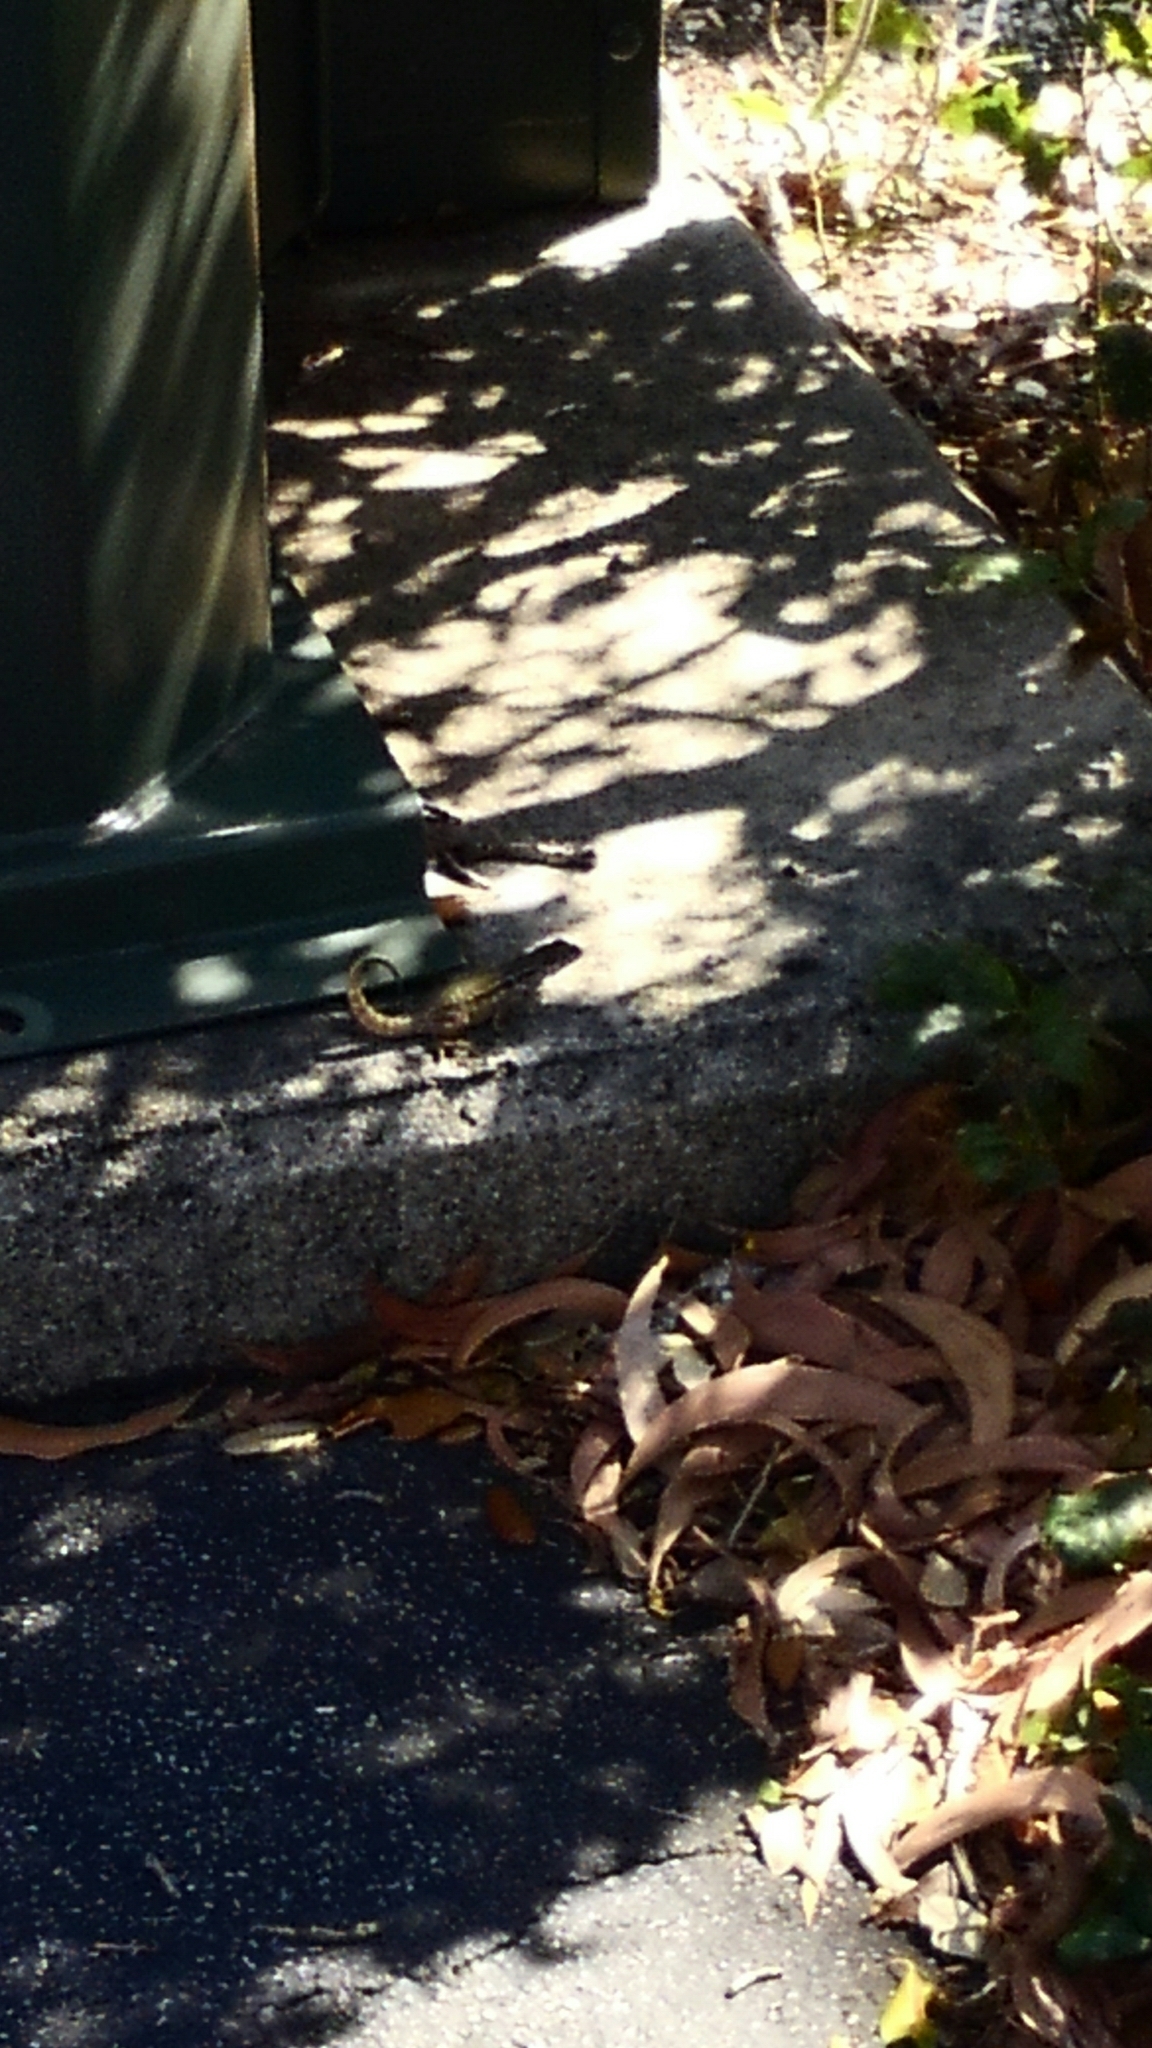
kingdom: Animalia
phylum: Chordata
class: Squamata
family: Leiocephalidae
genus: Leiocephalus
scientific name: Leiocephalus carinatus
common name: Northern curly-tailed lizard
